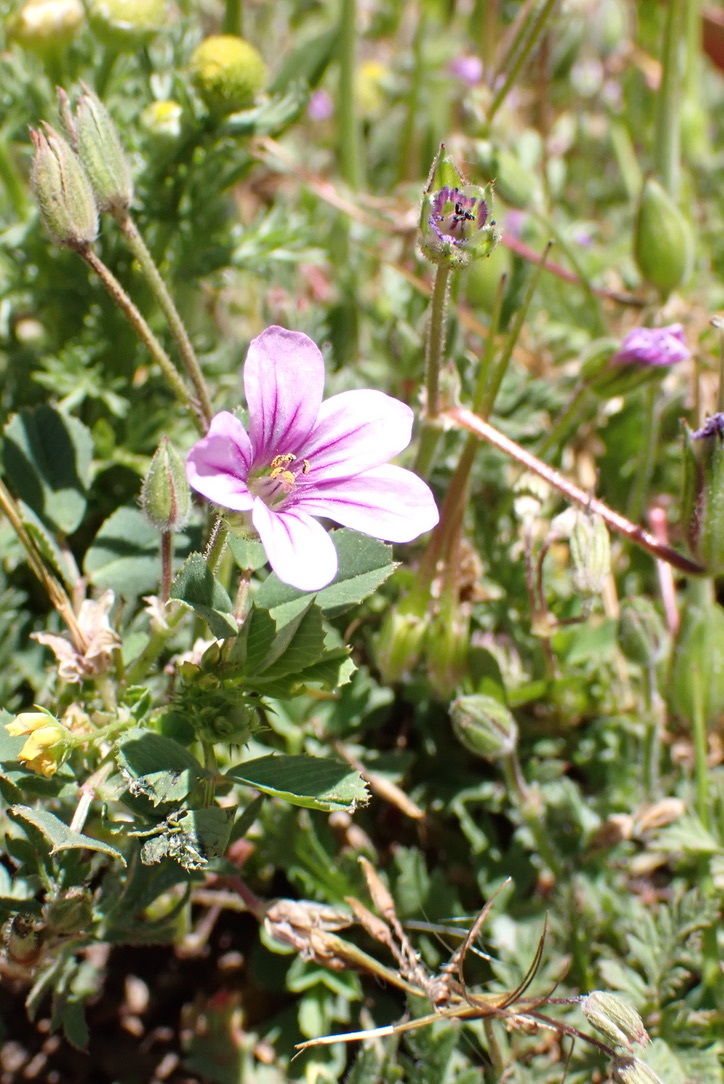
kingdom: Plantae
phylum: Tracheophyta
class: Magnoliopsida
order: Geraniales
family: Geraniaceae
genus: Erodium
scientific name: Erodium botrys
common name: Mediterranean stork's-bill
